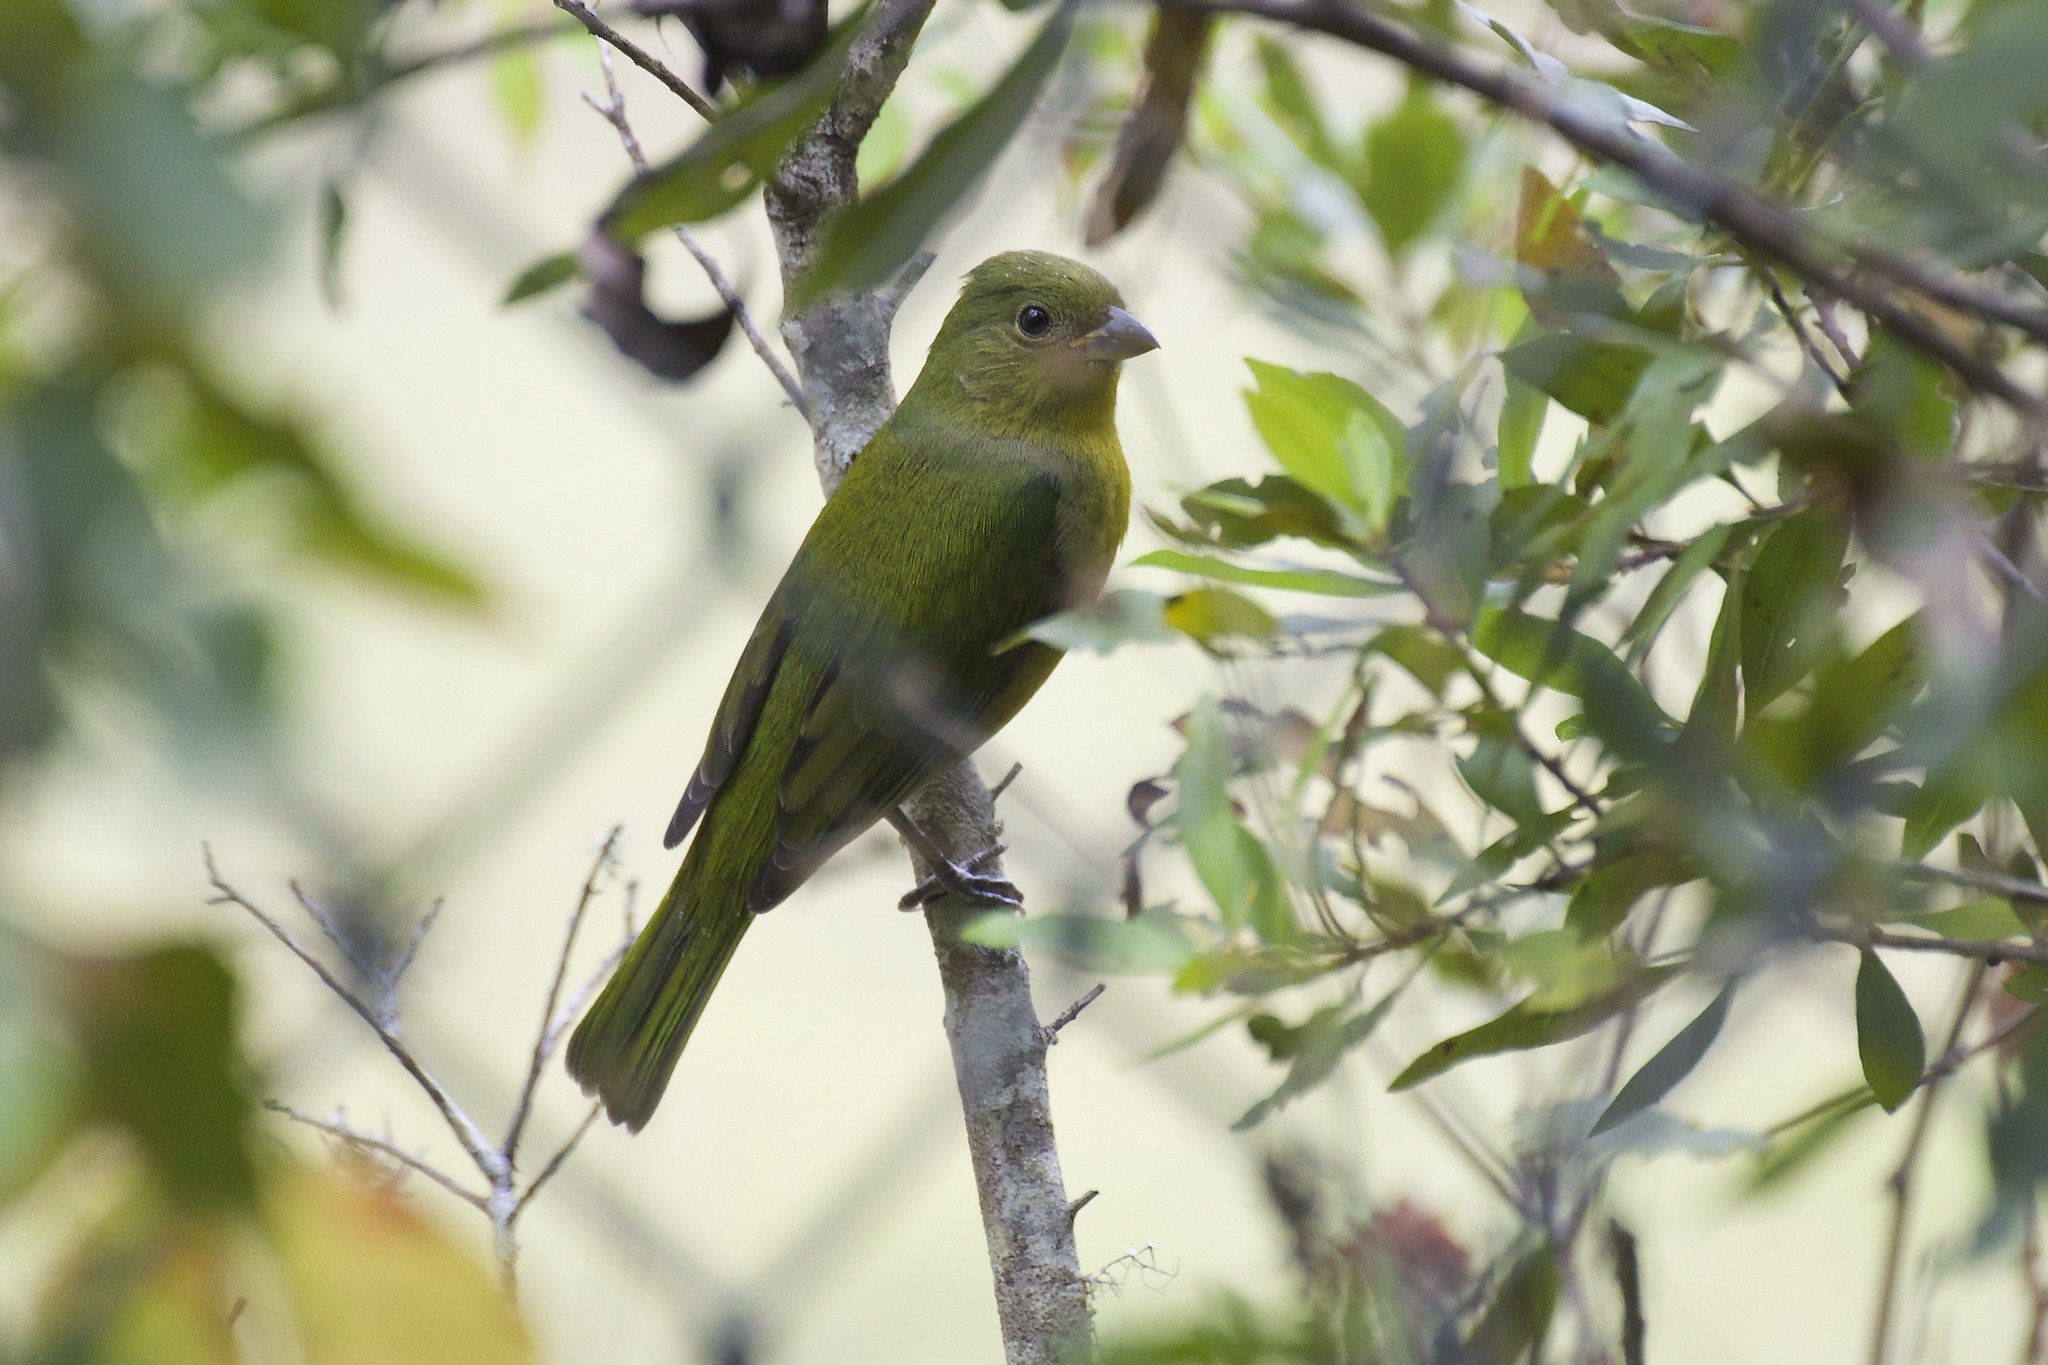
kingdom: Animalia
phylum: Chordata
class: Aves
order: Passeriformes
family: Cardinalidae
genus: Passerina
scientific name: Passerina ciris
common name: Painted bunting
